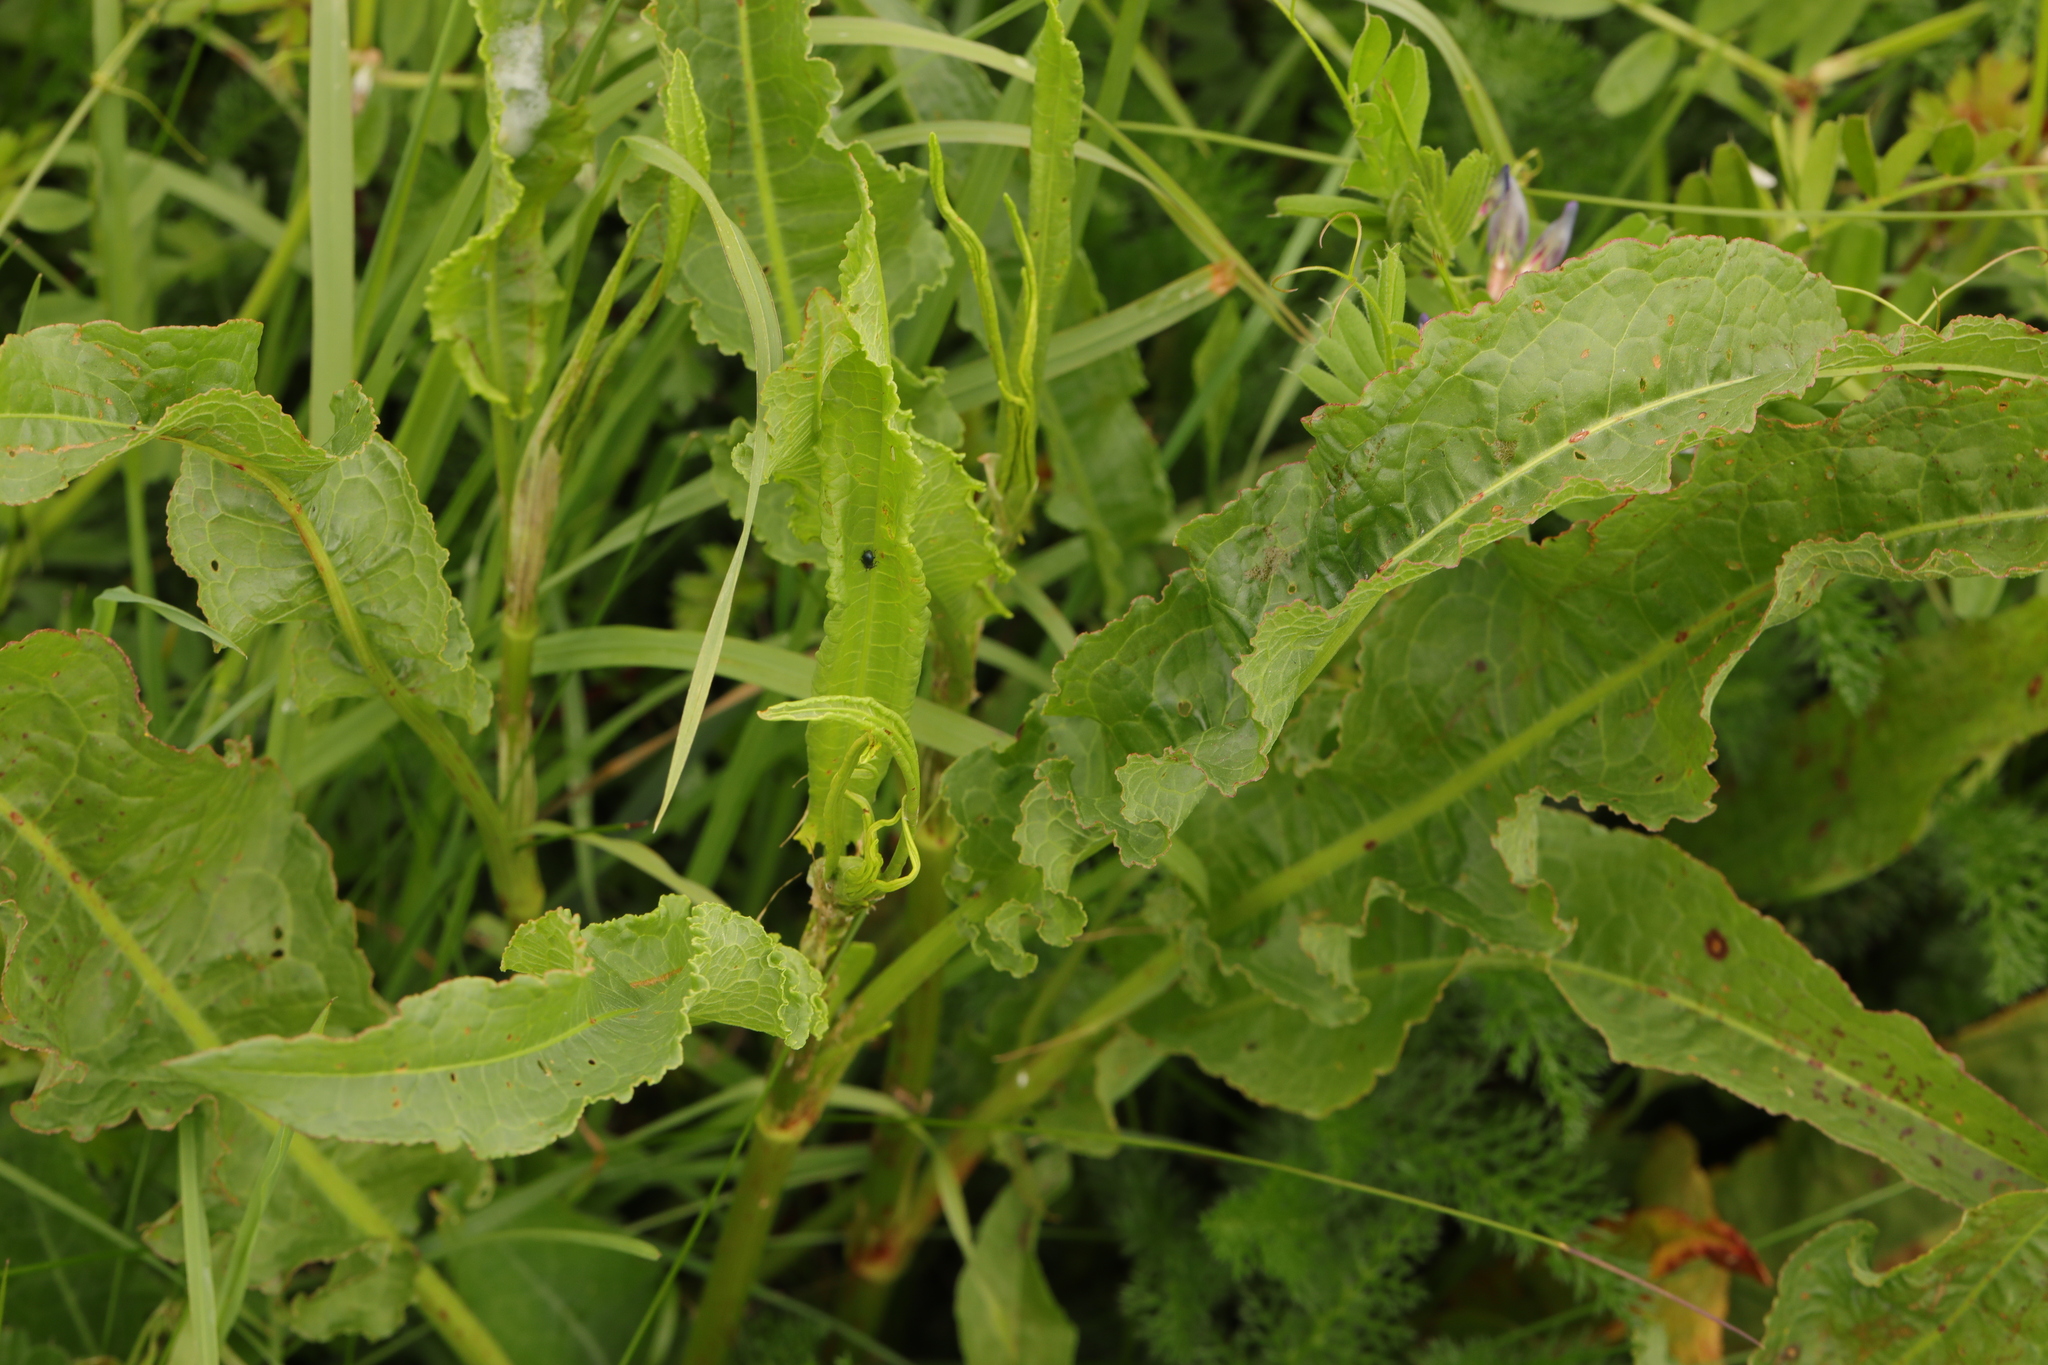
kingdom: Plantae
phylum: Tracheophyta
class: Magnoliopsida
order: Caryophyllales
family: Polygonaceae
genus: Rumex
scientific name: Rumex crispus
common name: Curled dock
